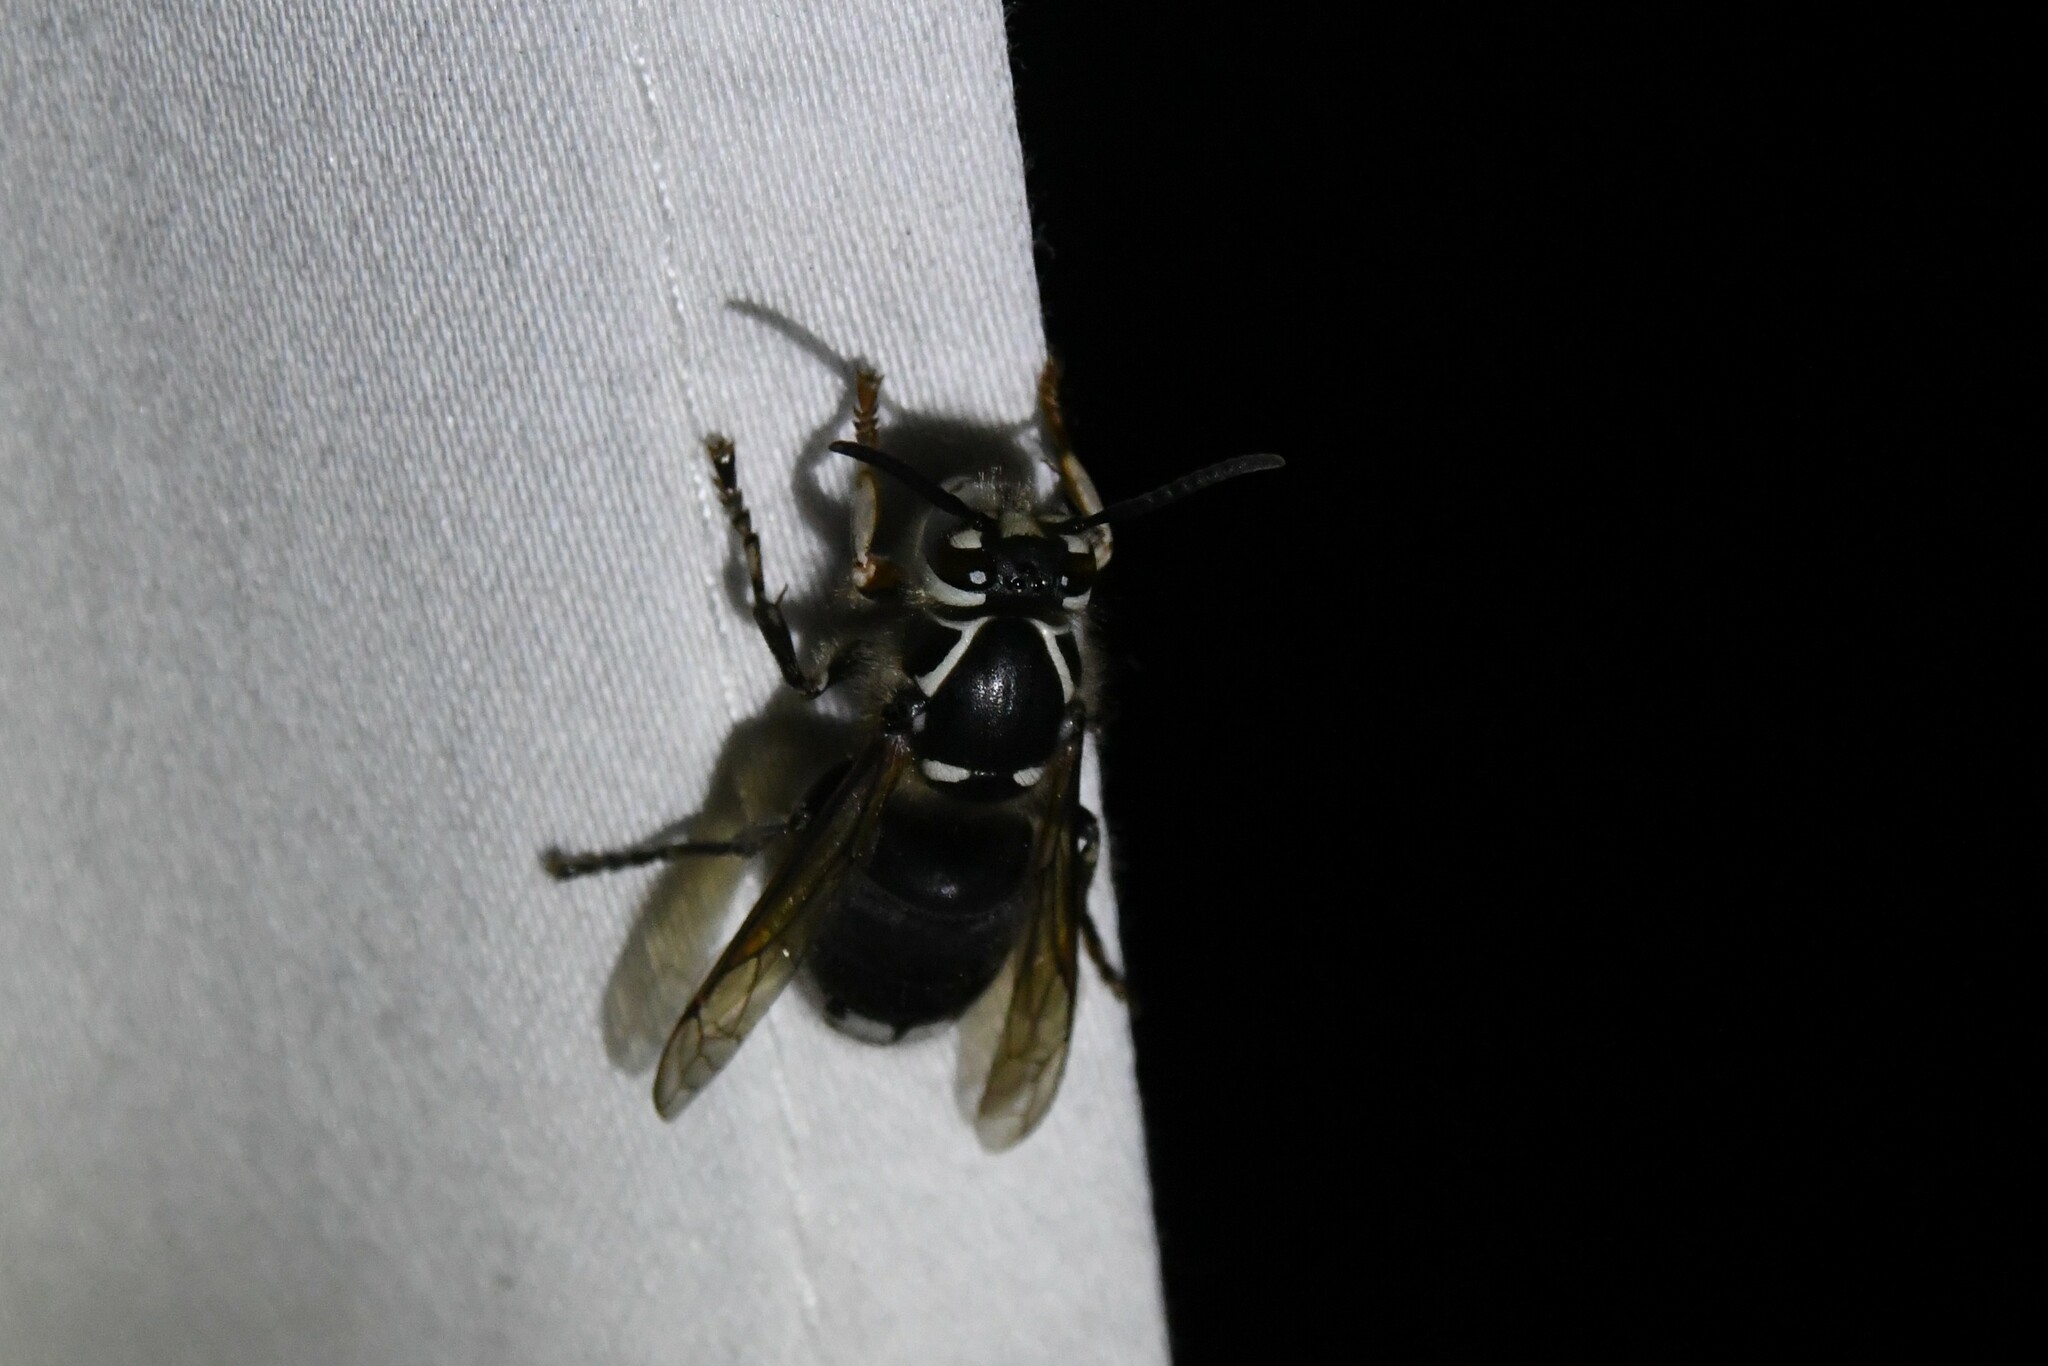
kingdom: Animalia
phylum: Arthropoda
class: Insecta
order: Hymenoptera
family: Vespidae
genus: Dolichovespula
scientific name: Dolichovespula maculata
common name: Bald-faced hornet
